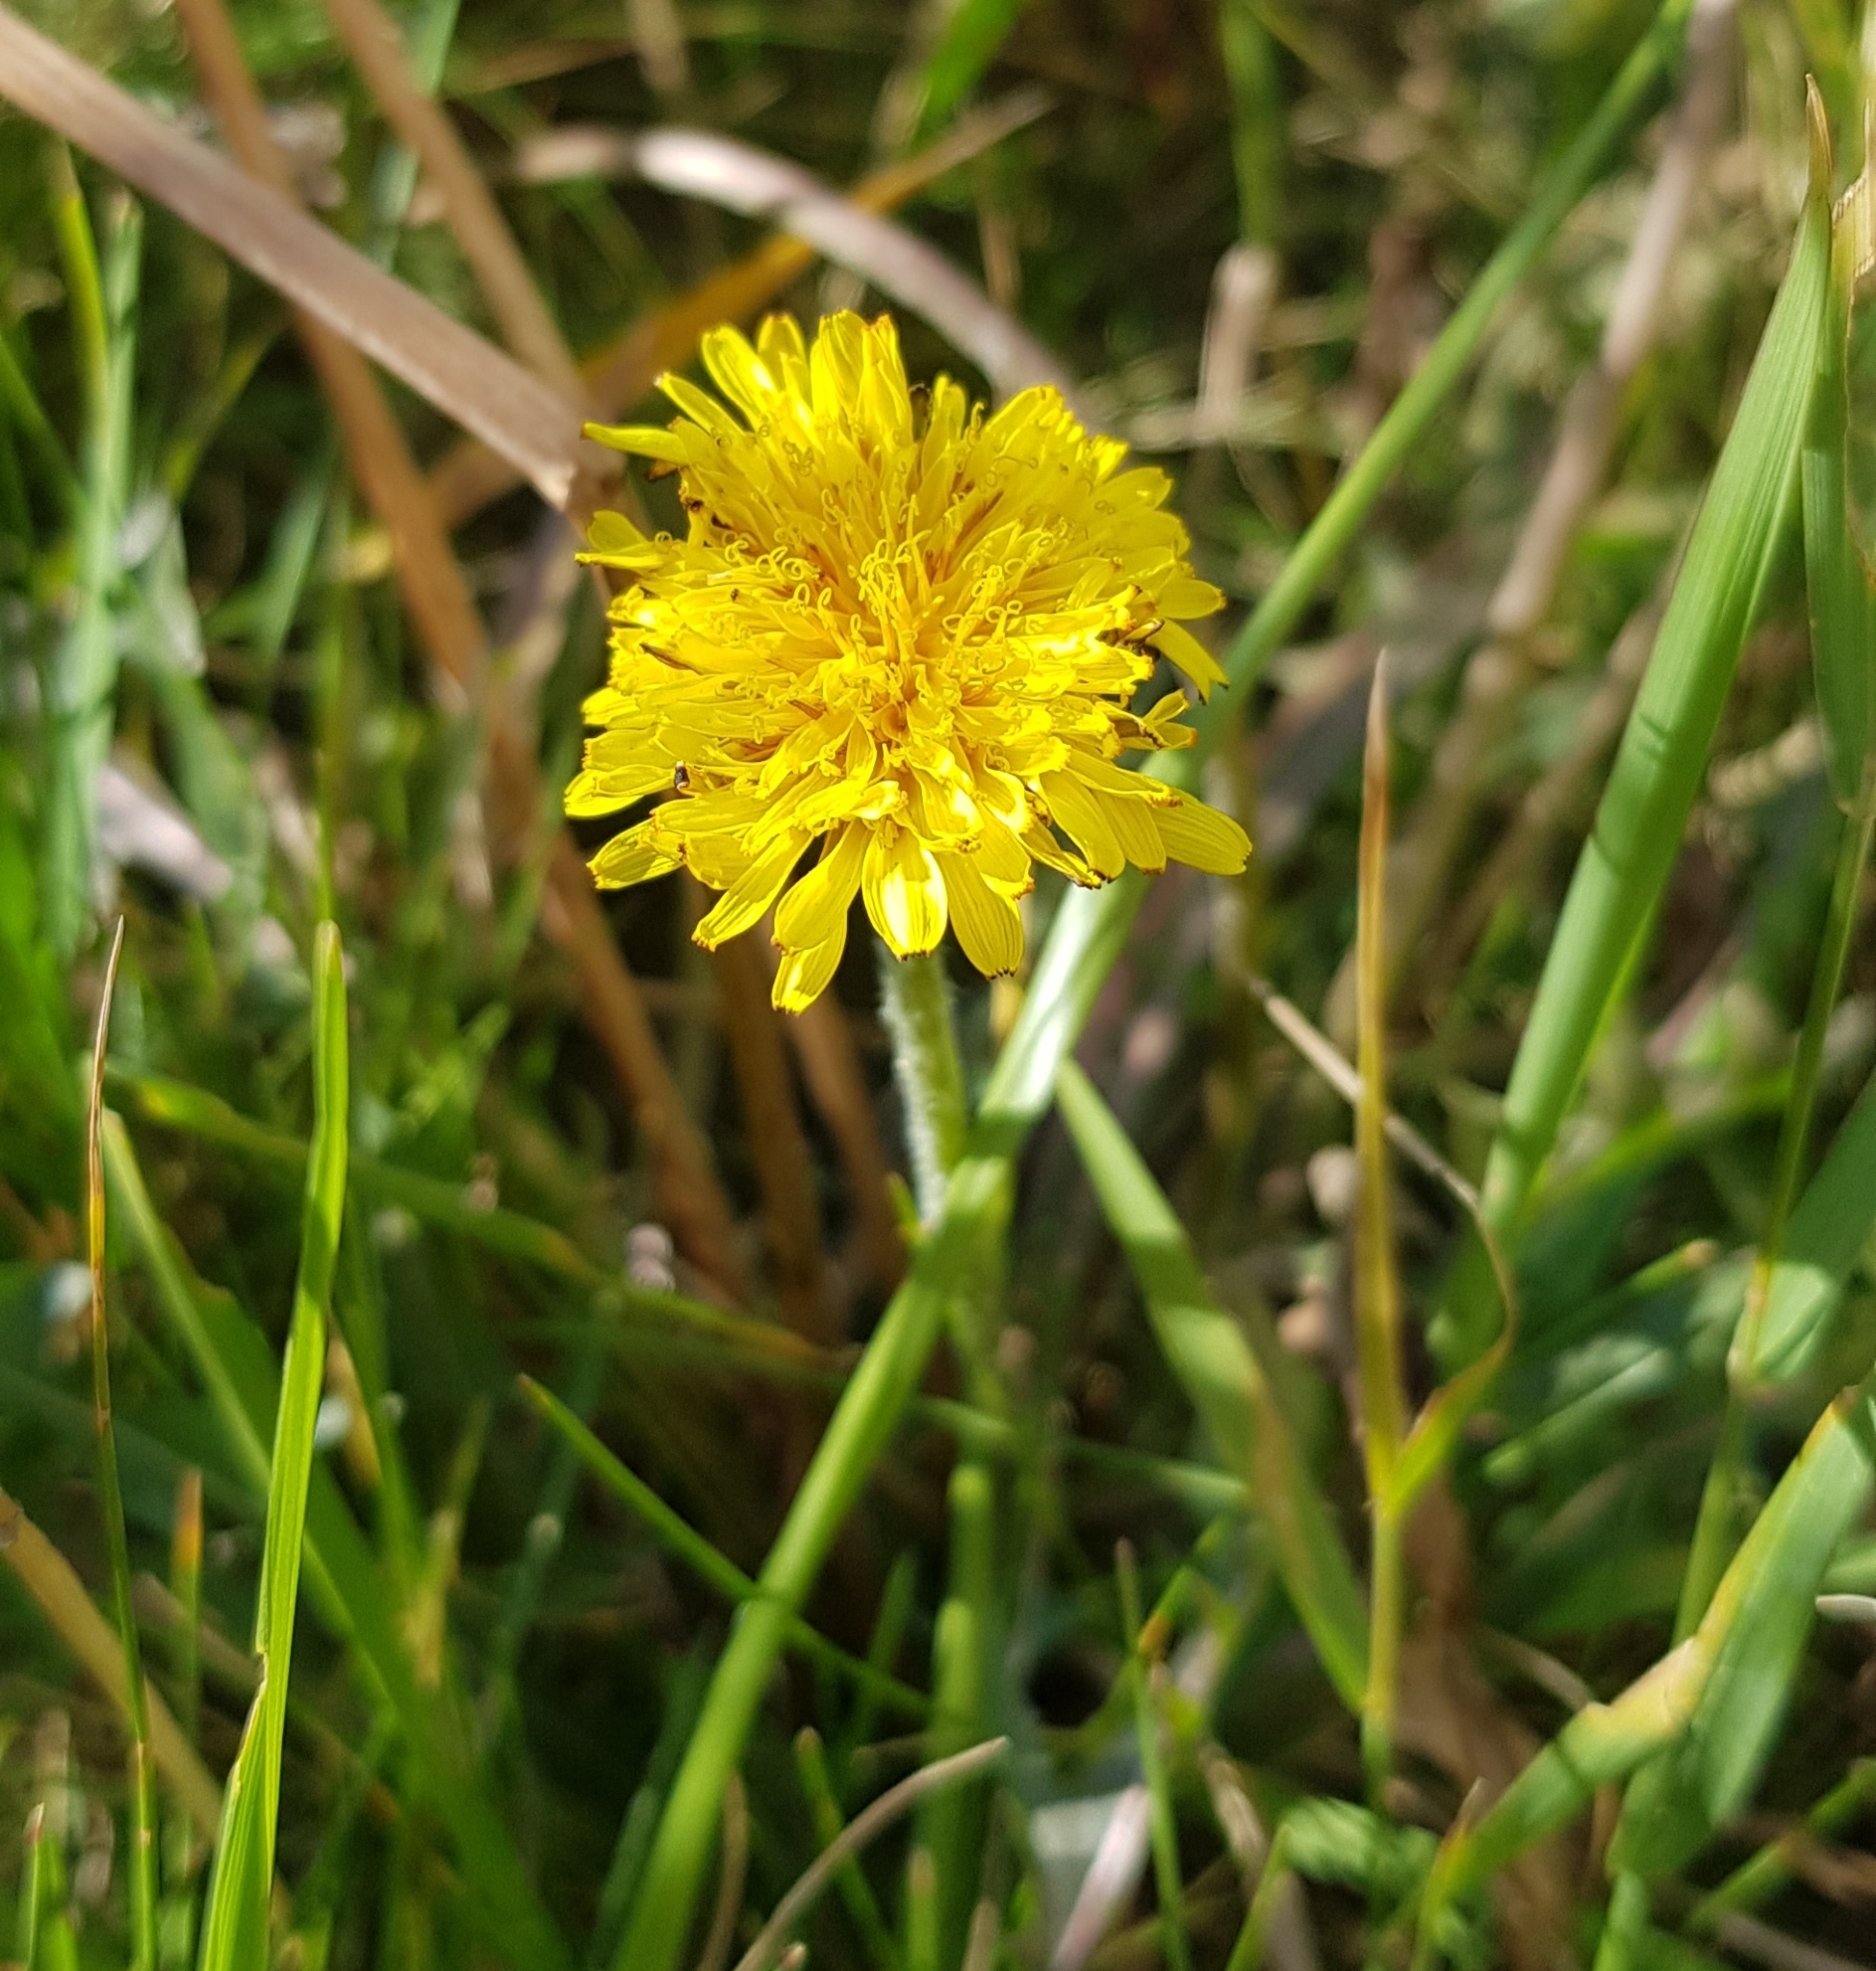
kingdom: Plantae
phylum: Tracheophyta
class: Magnoliopsida
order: Asterales
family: Asteraceae
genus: Taraxacum
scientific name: Taraxacum officinale
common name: Common dandelion
